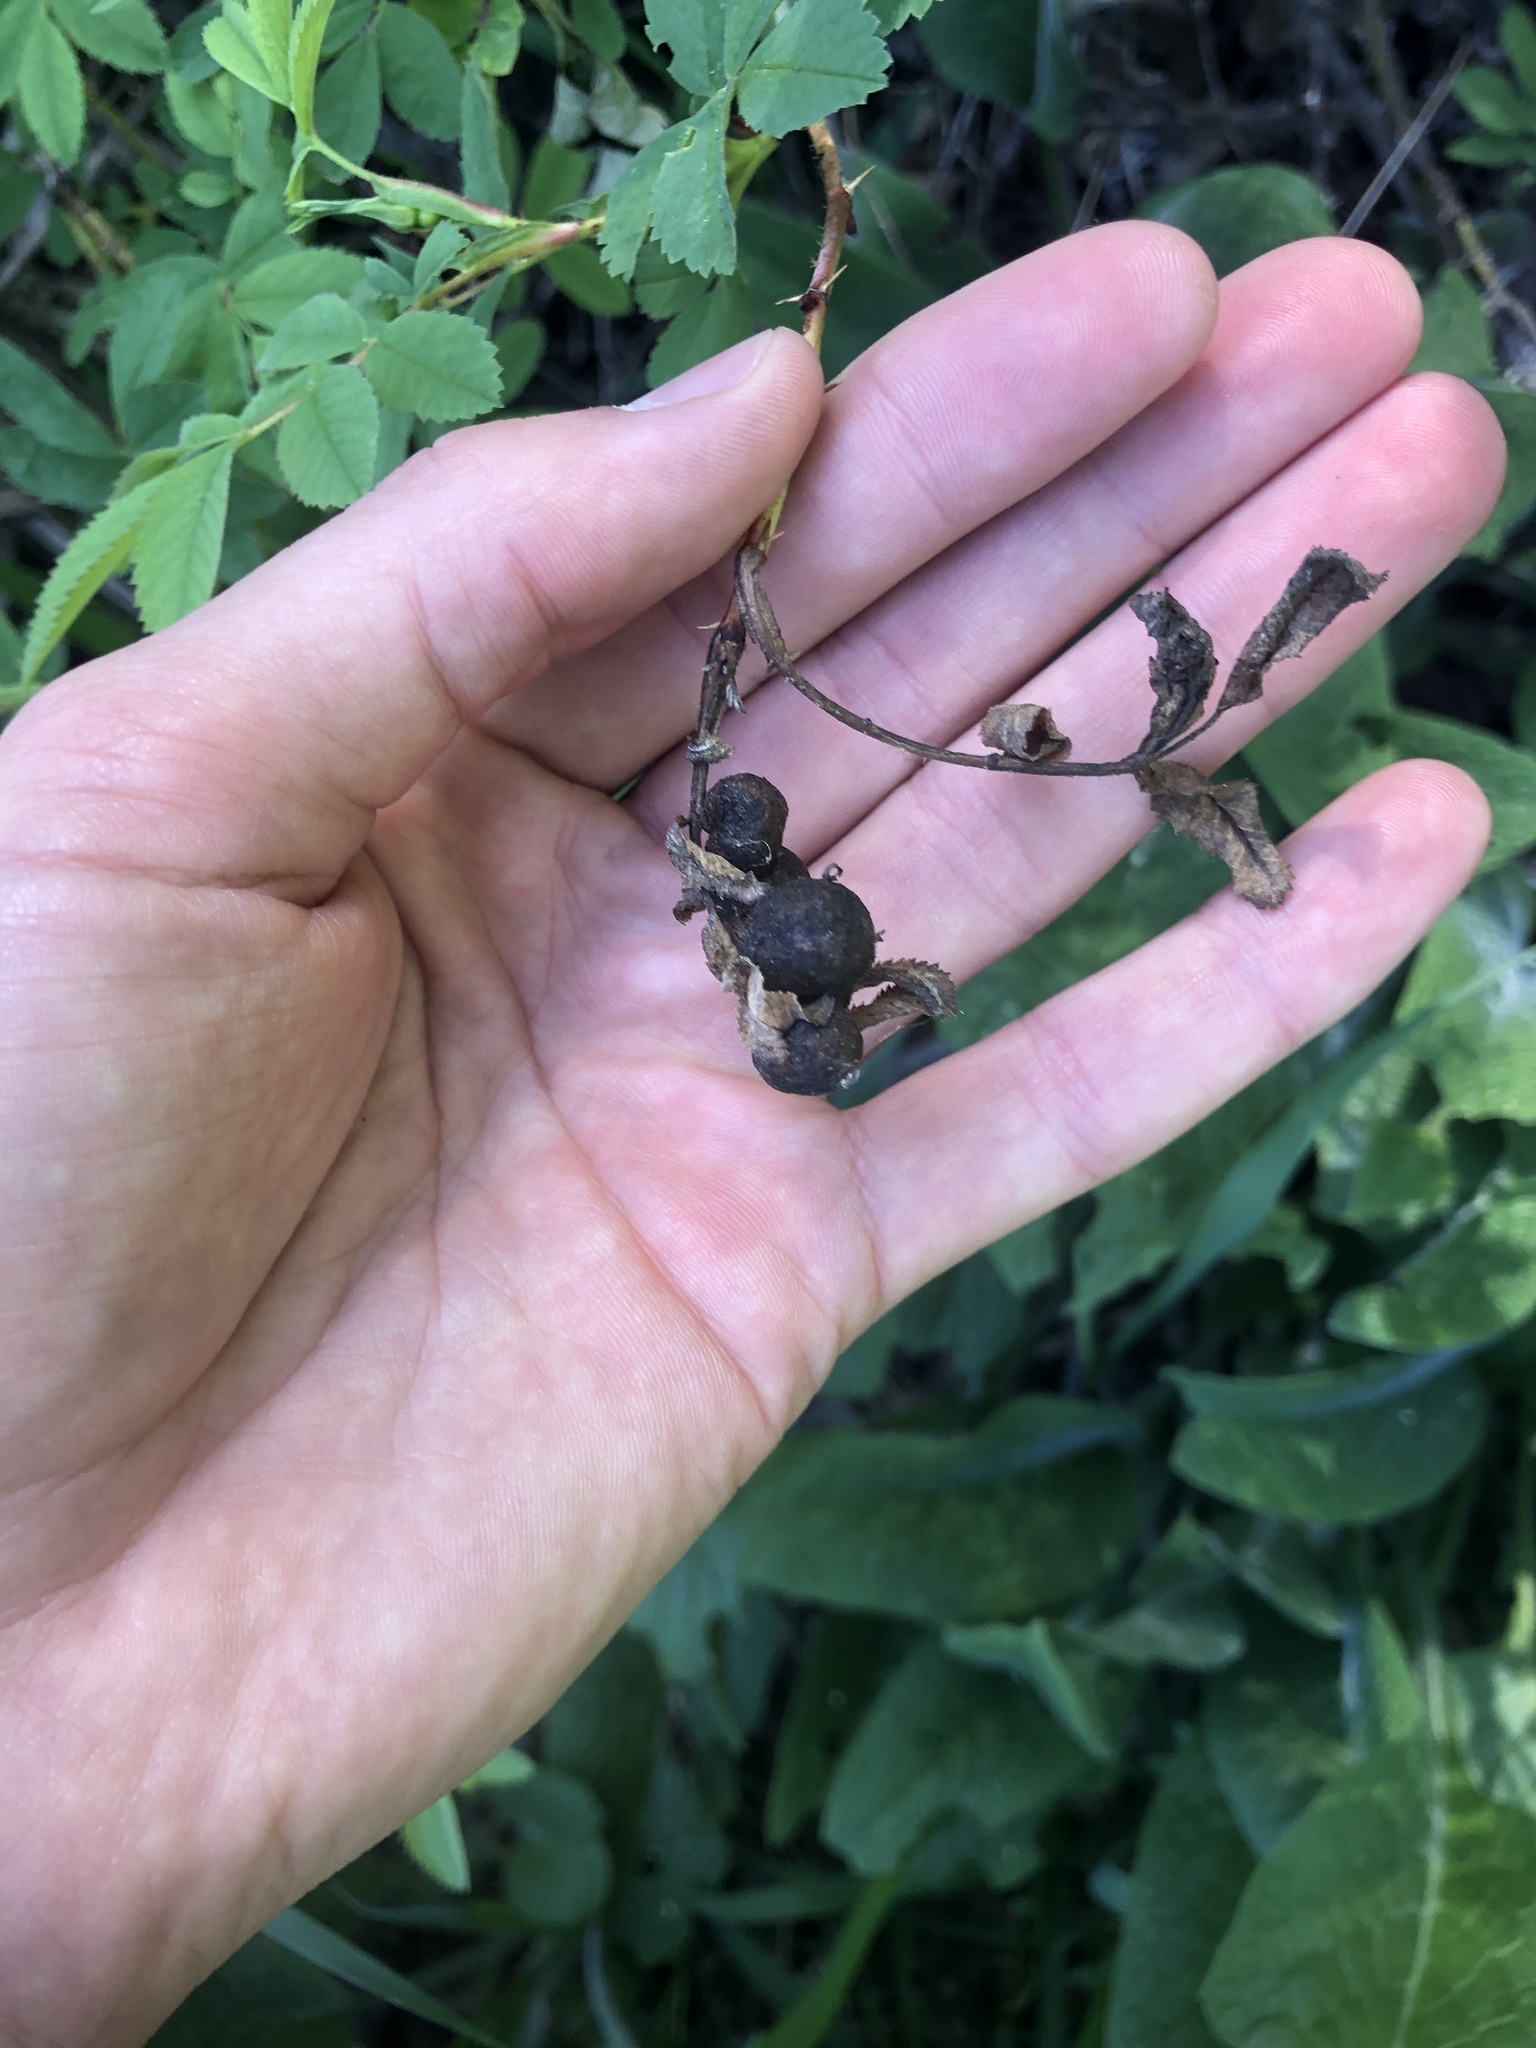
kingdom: Animalia
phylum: Arthropoda
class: Insecta
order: Hymenoptera
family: Cynipidae
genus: Diplolepis
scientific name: Diplolepis variabilis
